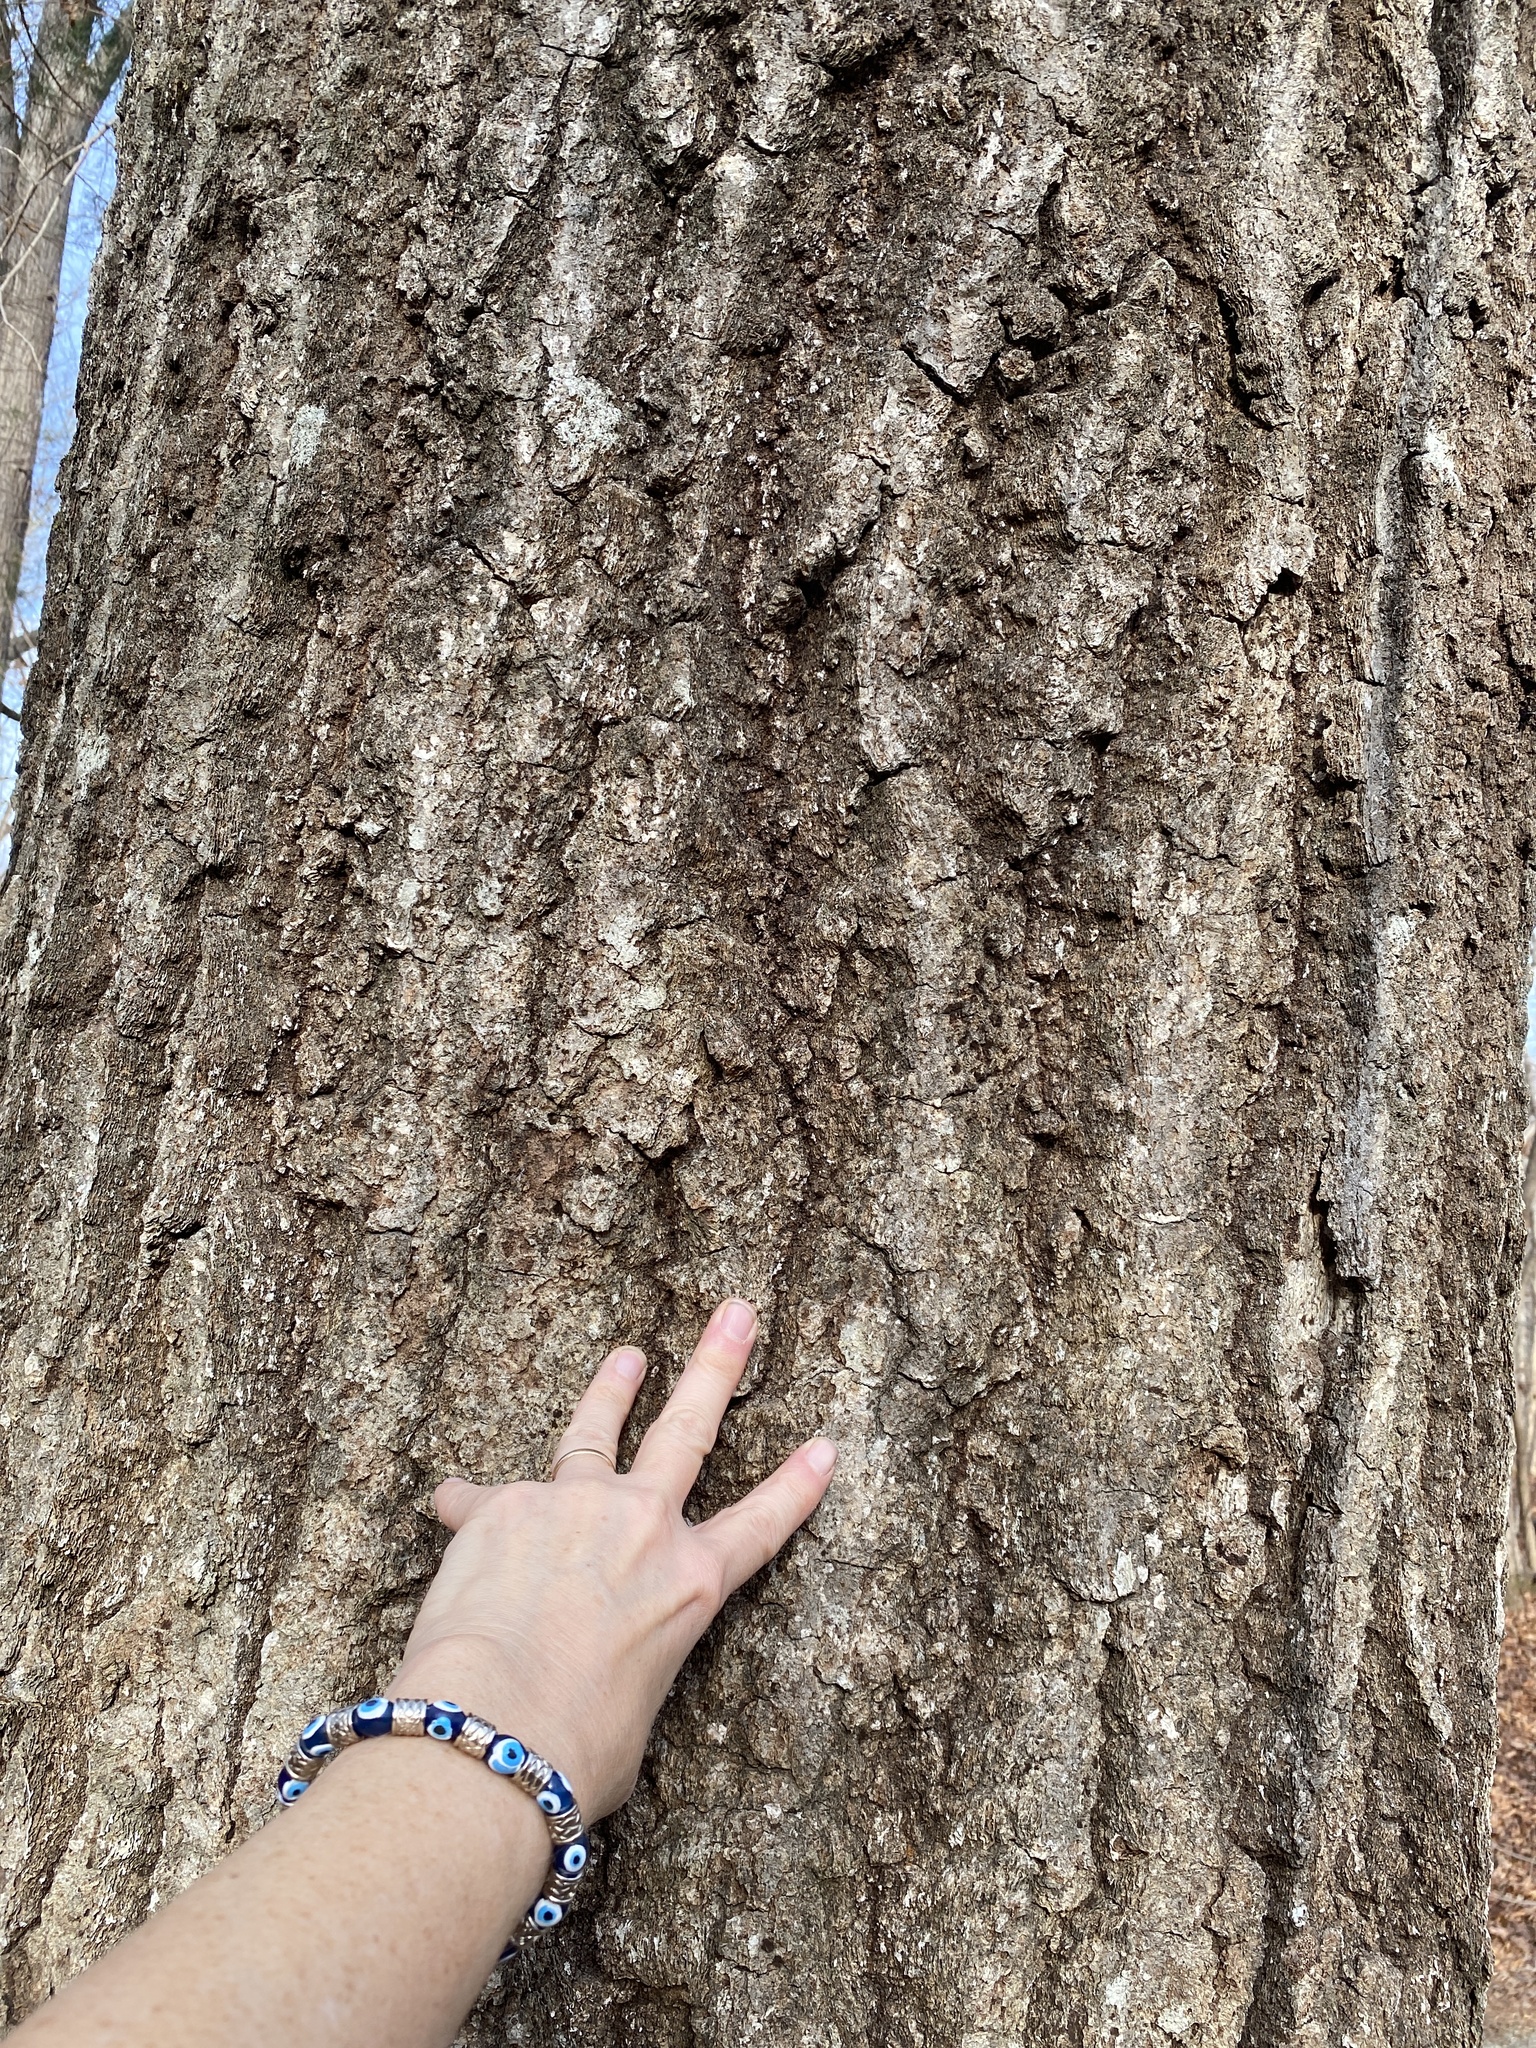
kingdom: Plantae
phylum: Tracheophyta
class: Magnoliopsida
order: Fagales
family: Fagaceae
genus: Quercus
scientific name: Quercus rubra
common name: Red oak
